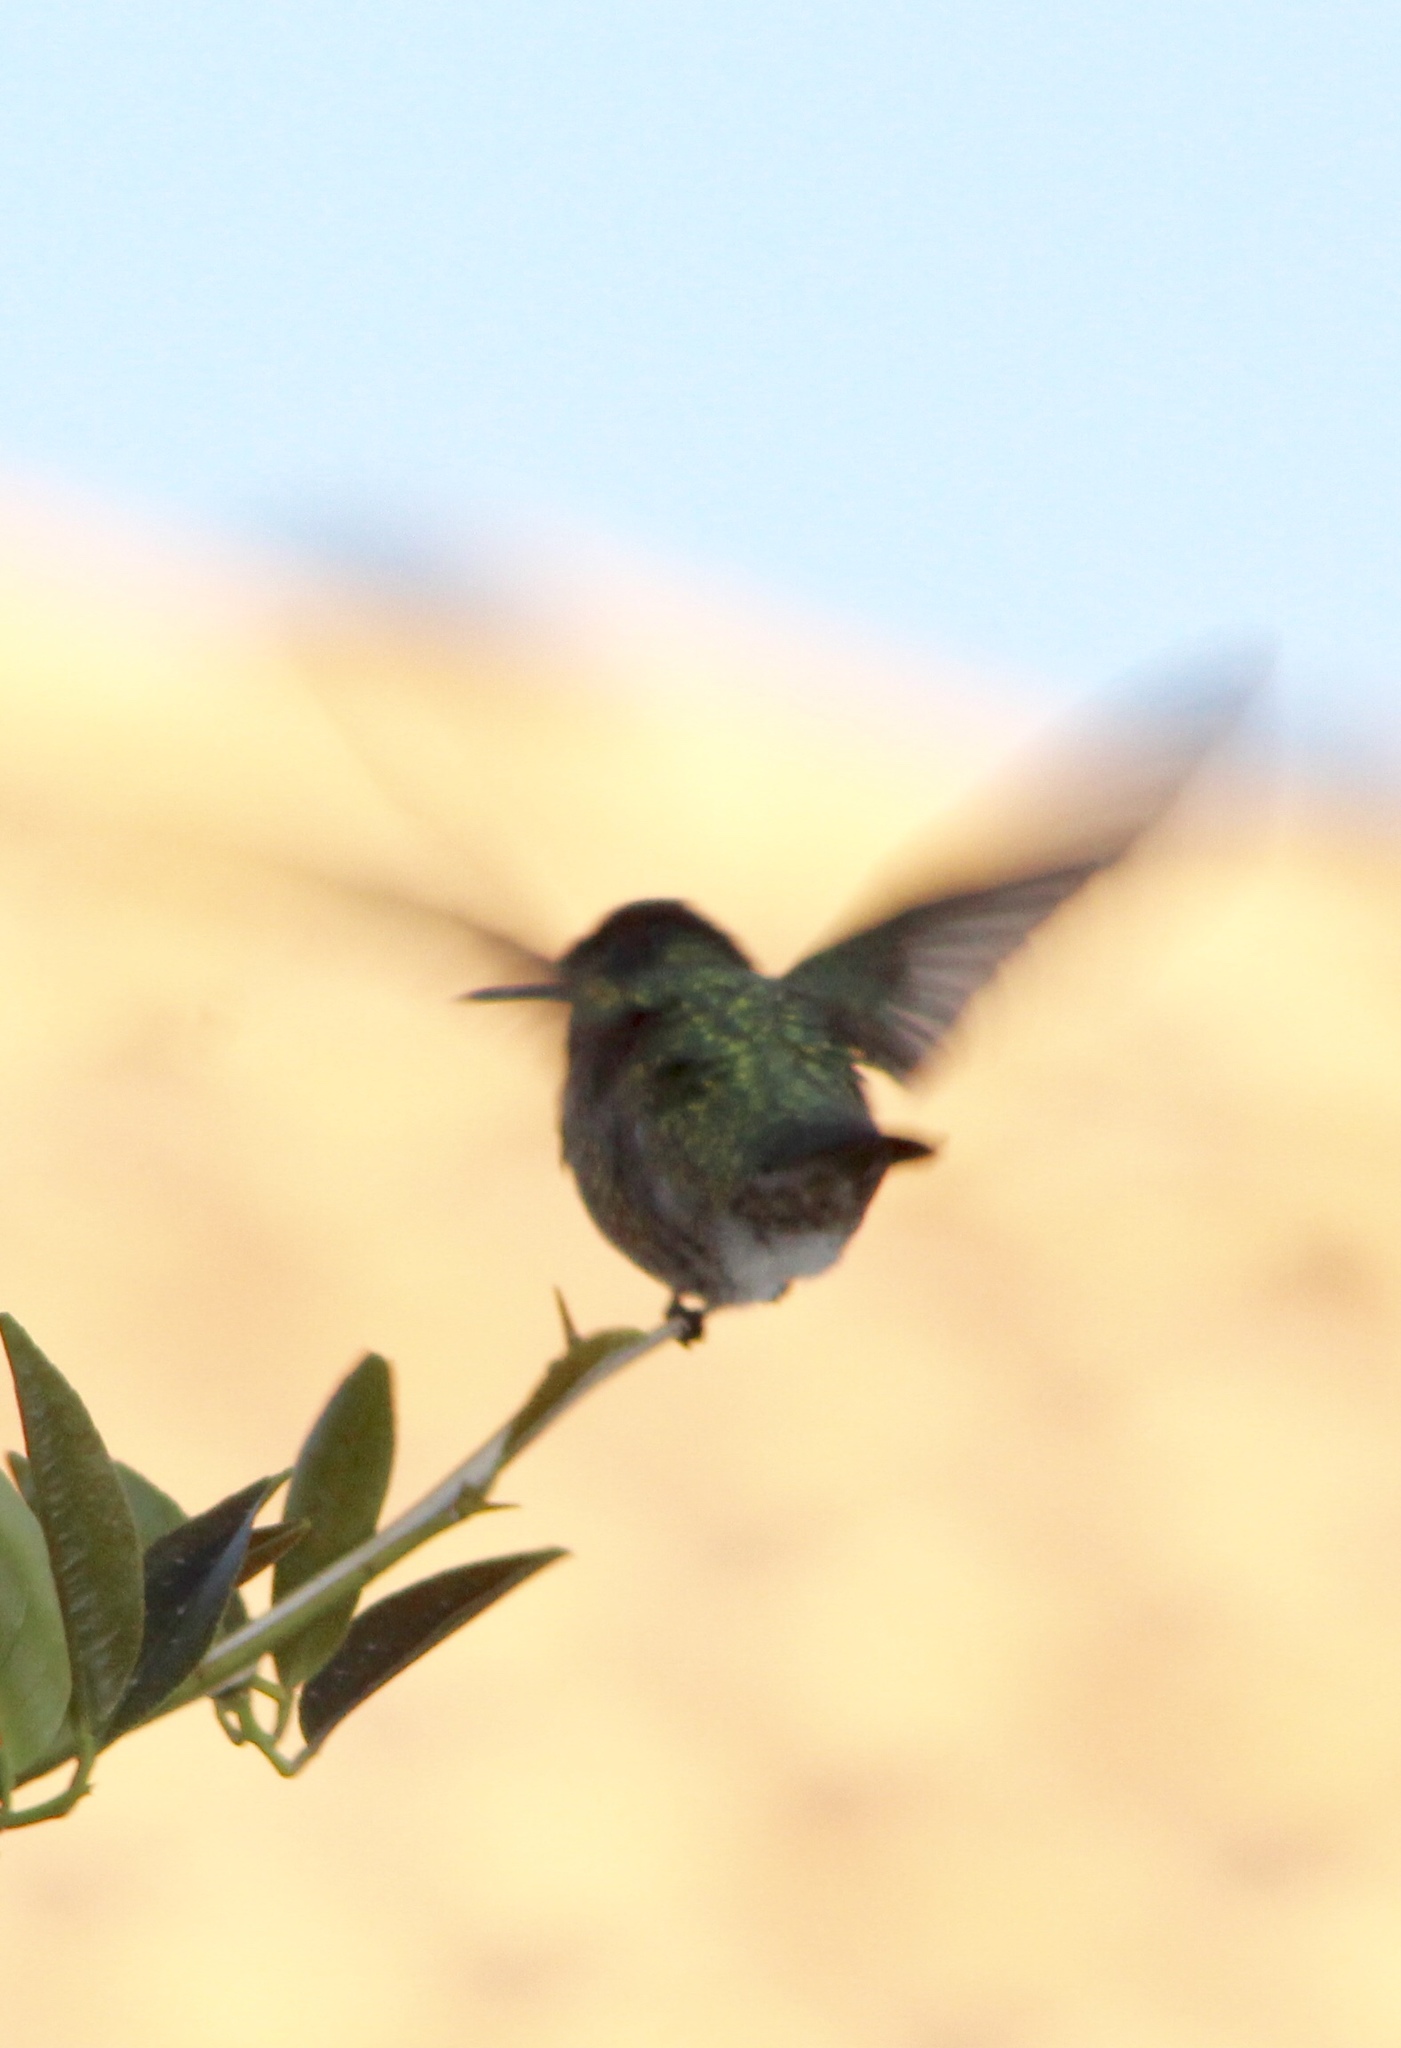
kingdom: Animalia
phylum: Chordata
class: Aves
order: Apodiformes
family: Trochilidae
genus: Calypte
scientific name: Calypte costae
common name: Costa's hummingbird
